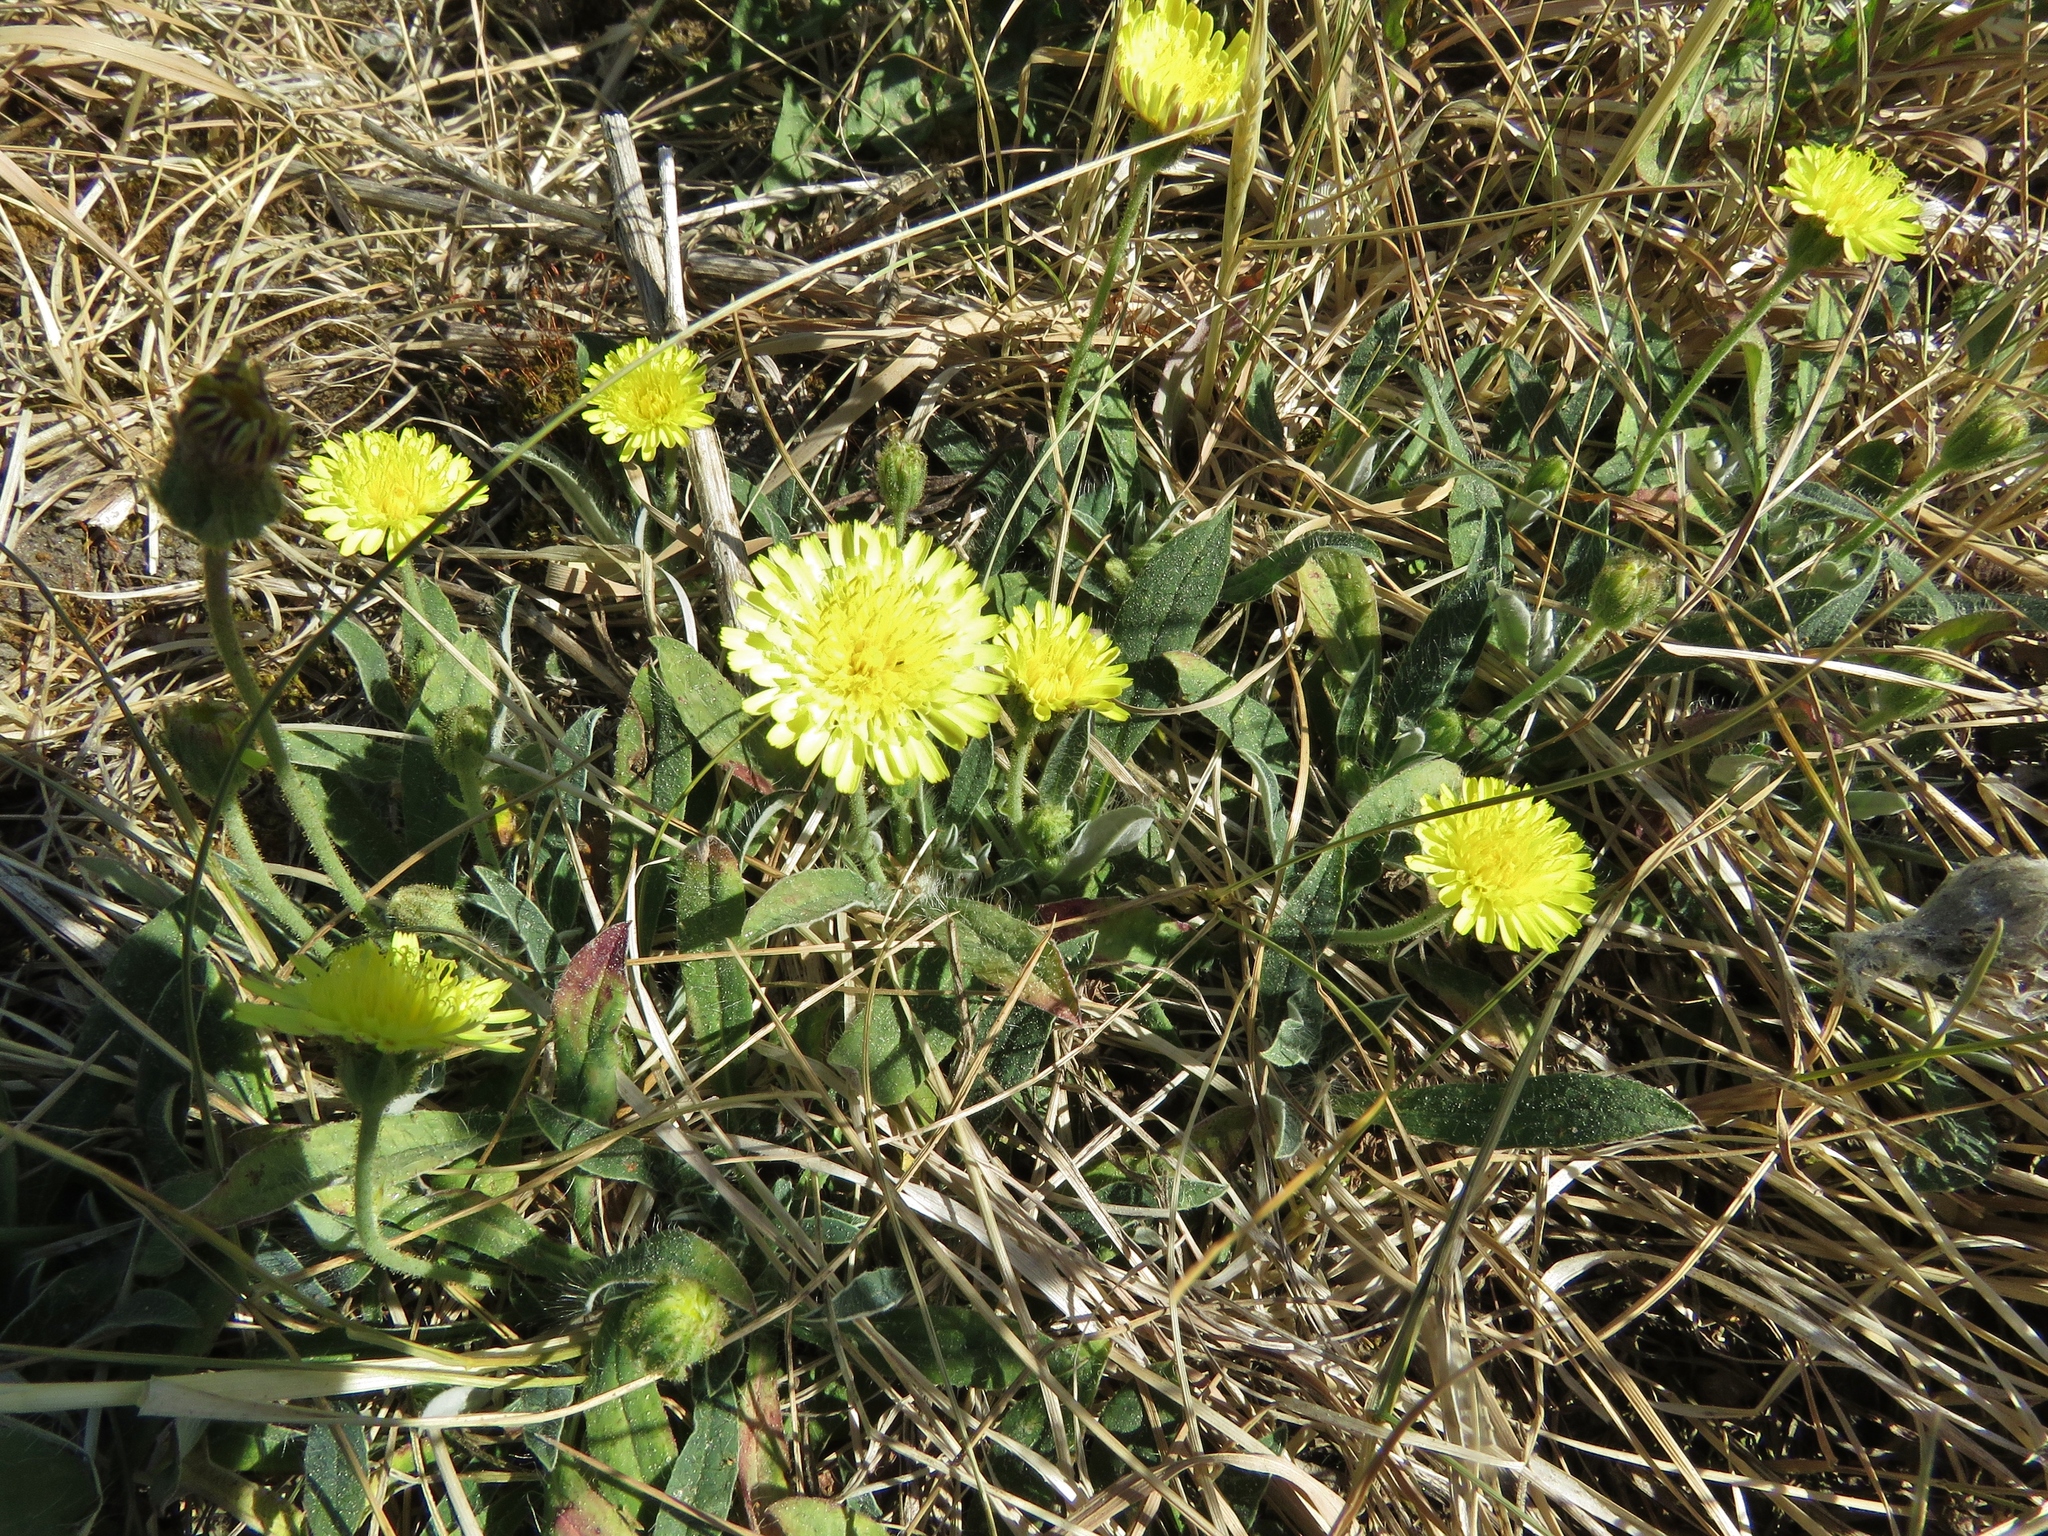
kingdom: Plantae
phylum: Tracheophyta
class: Magnoliopsida
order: Asterales
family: Asteraceae
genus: Pilosella
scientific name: Pilosella officinarum
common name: Mouse-ear hawkweed
